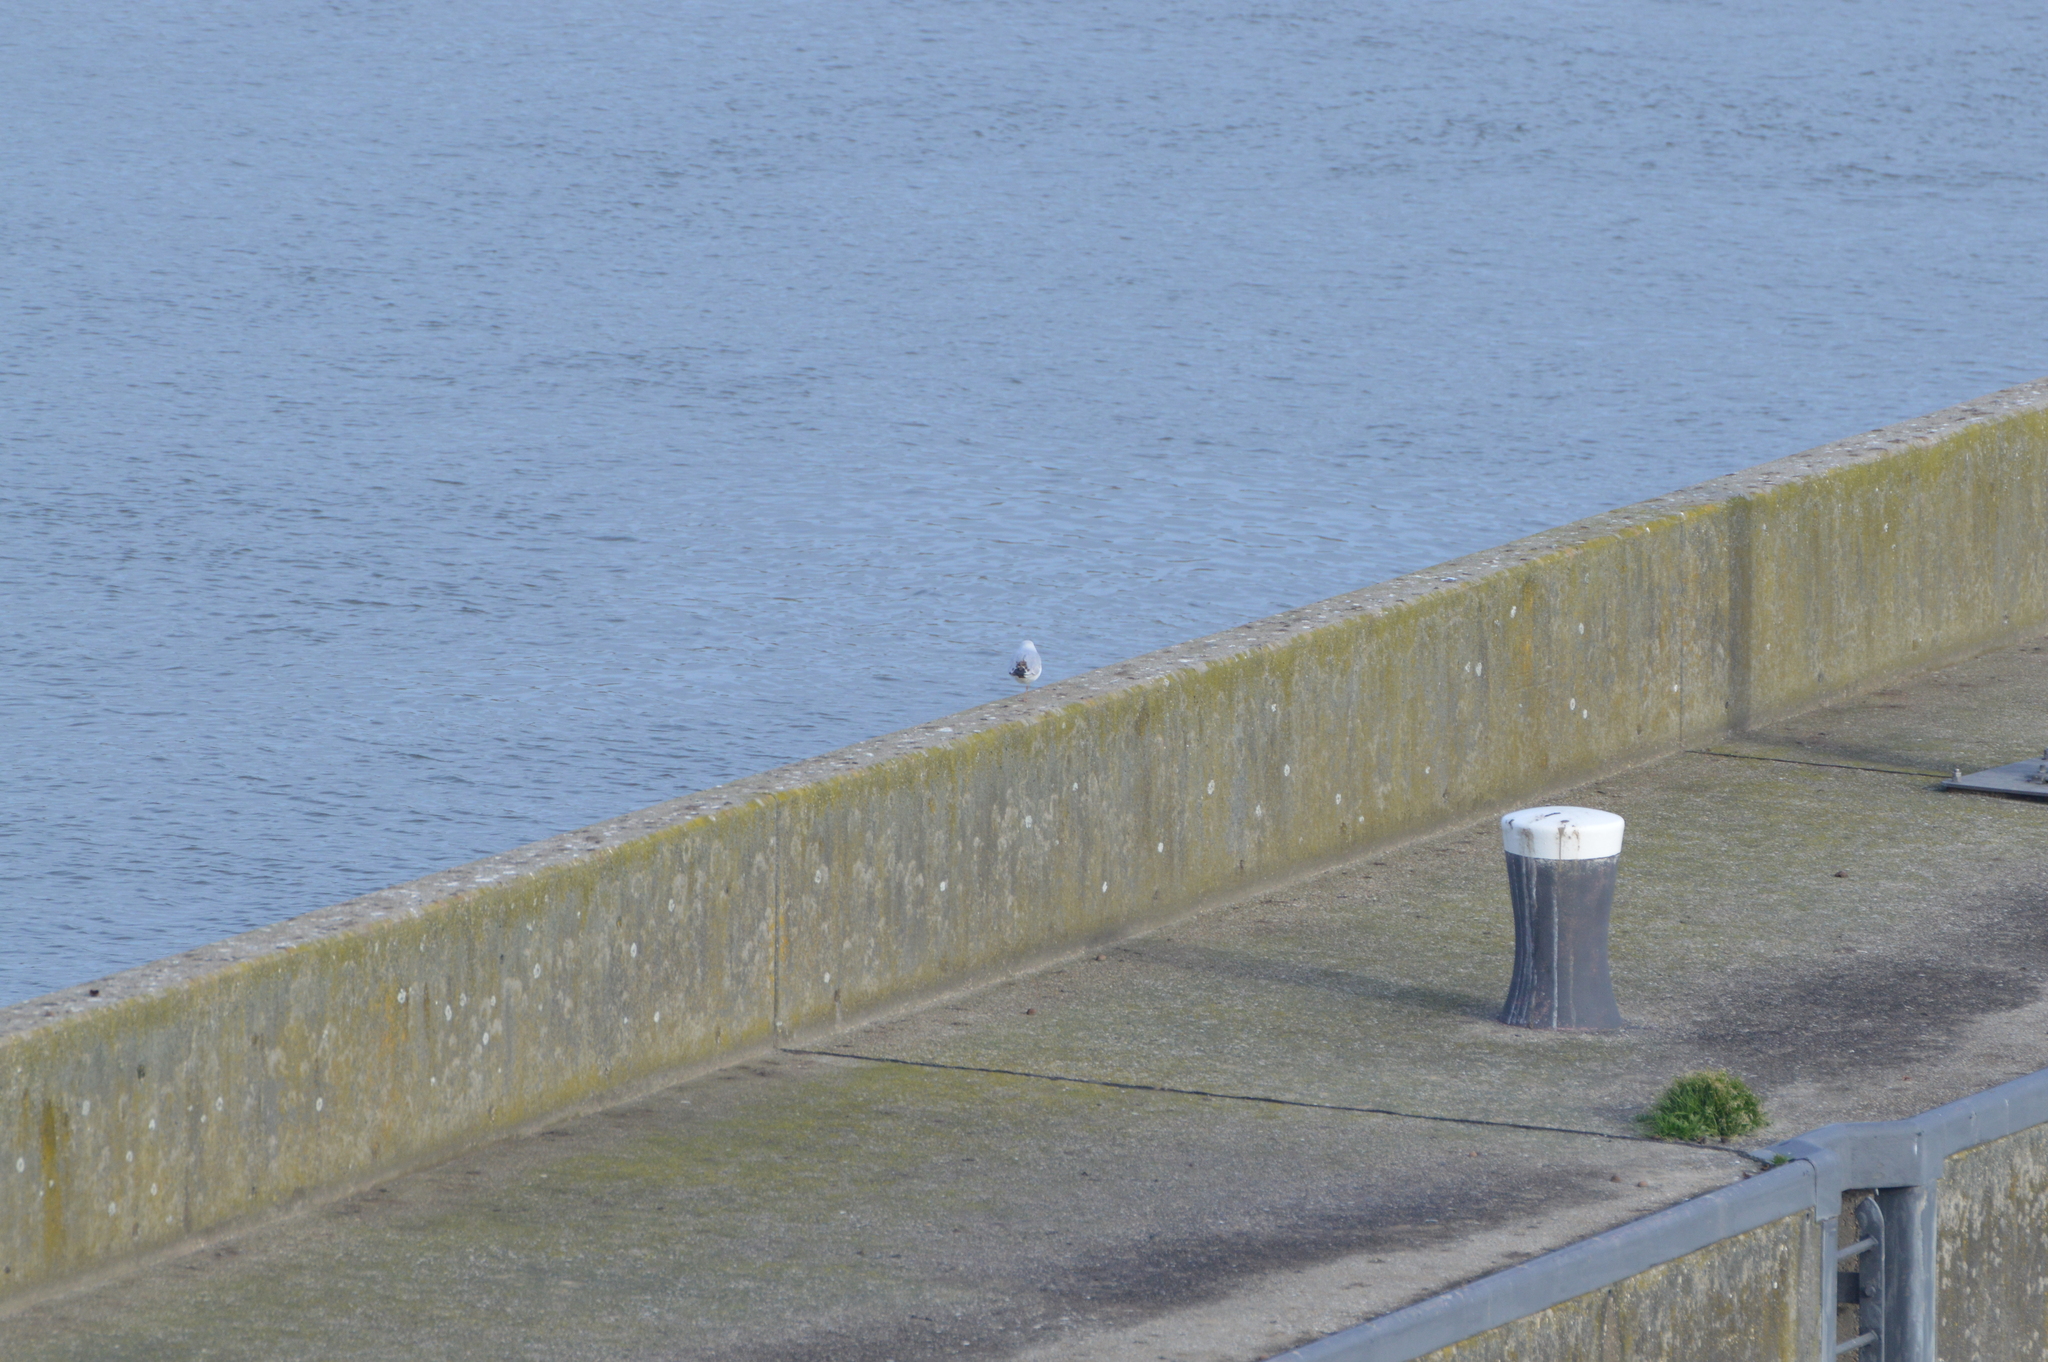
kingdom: Animalia
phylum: Chordata
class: Aves
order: Charadriiformes
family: Laridae
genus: Chroicocephalus
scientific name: Chroicocephalus ridibundus
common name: Black-headed gull
